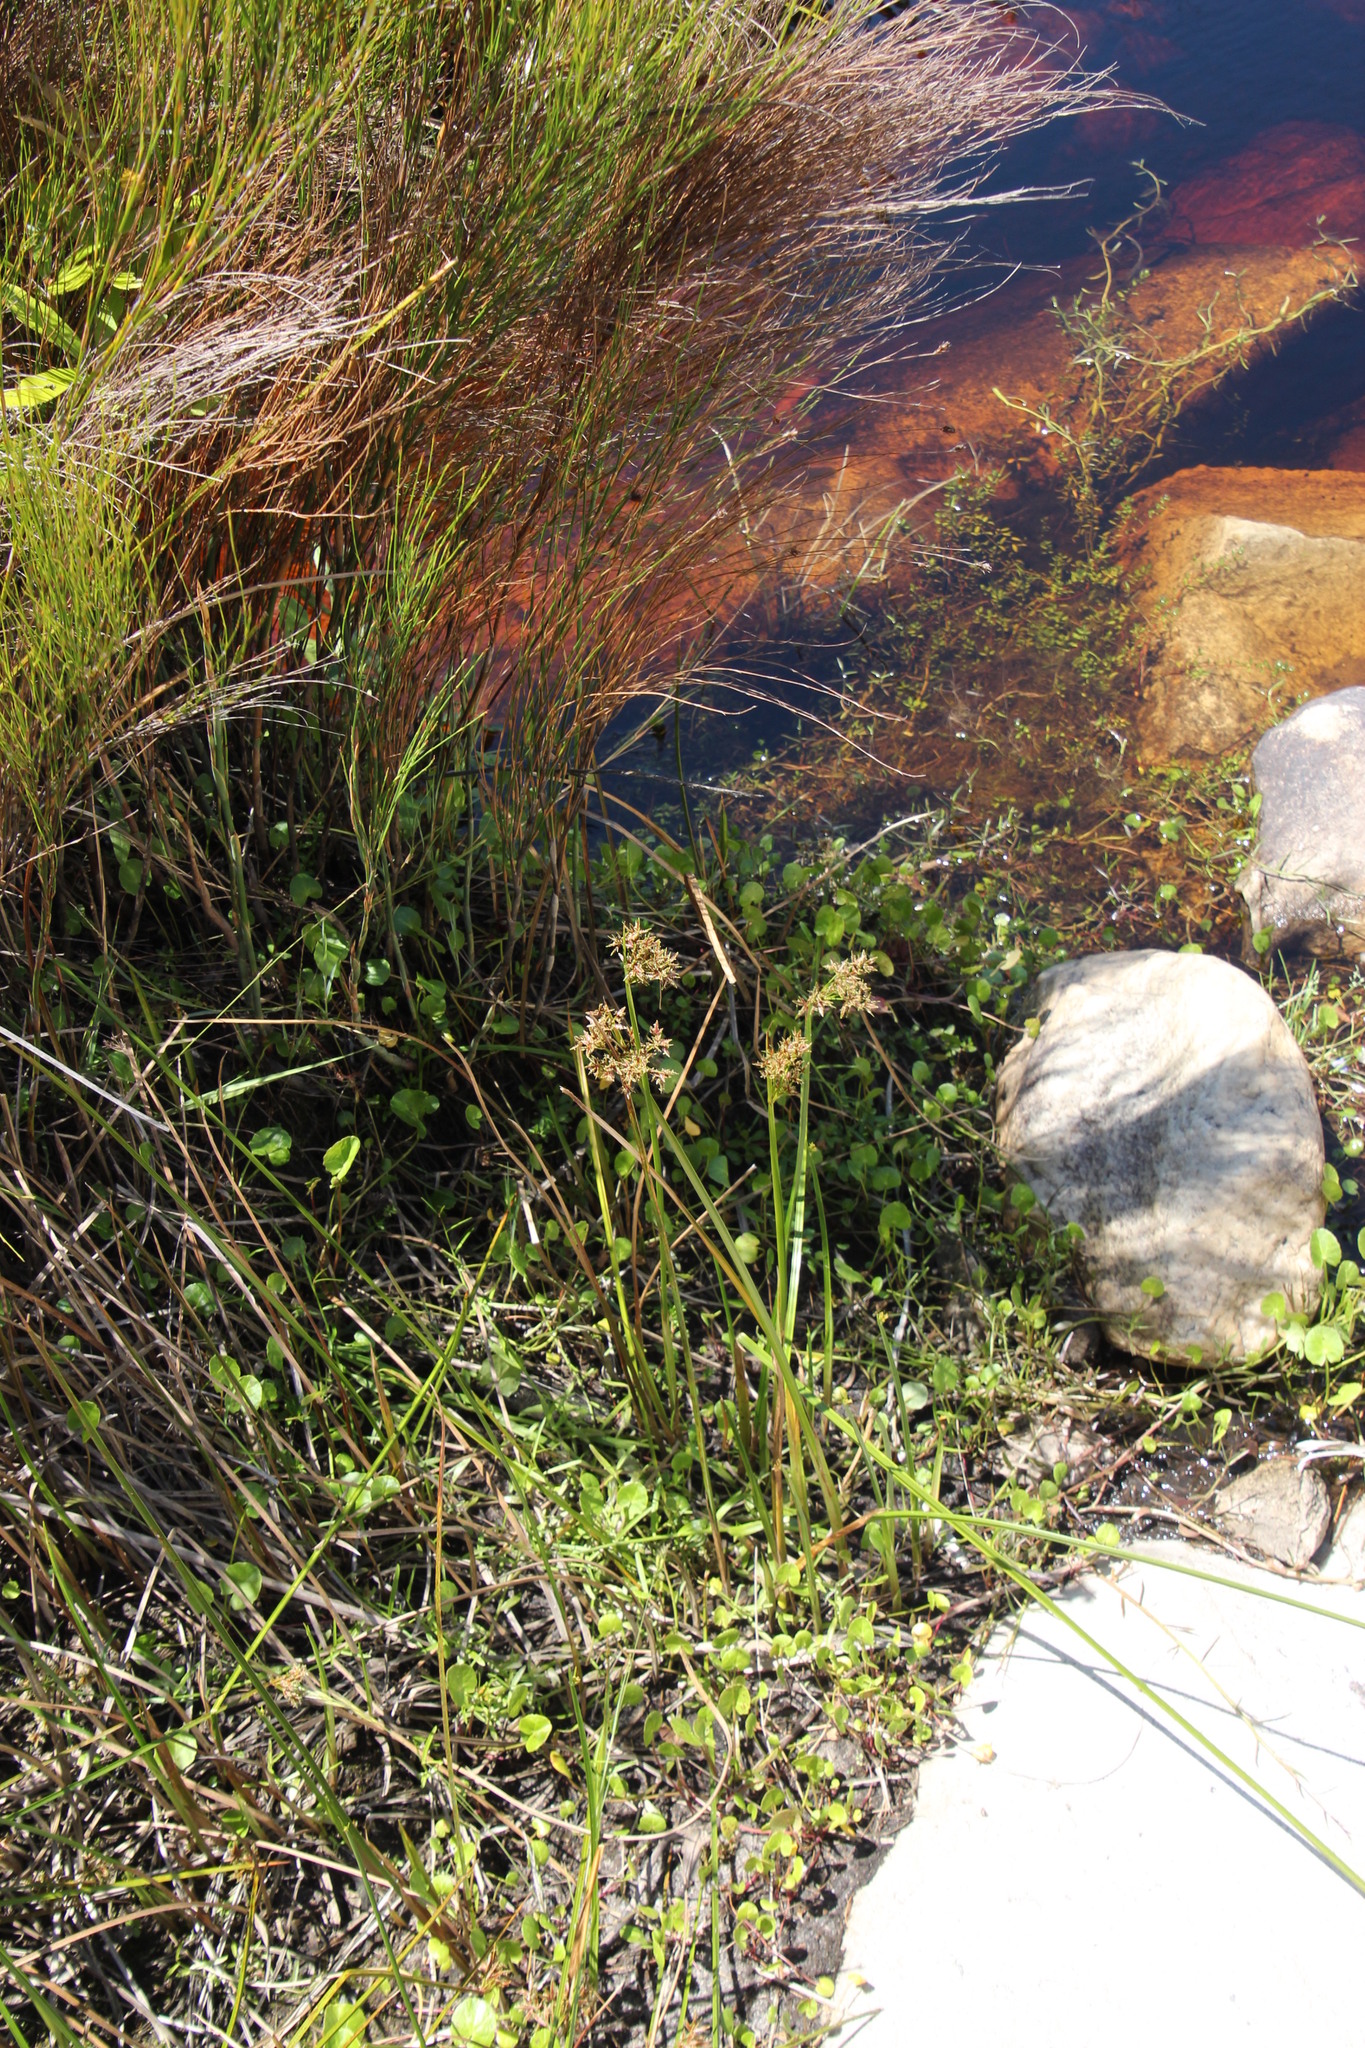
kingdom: Plantae
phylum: Tracheophyta
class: Liliopsida
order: Poales
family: Cyperaceae
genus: Cyperus
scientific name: Cyperus denudatus
